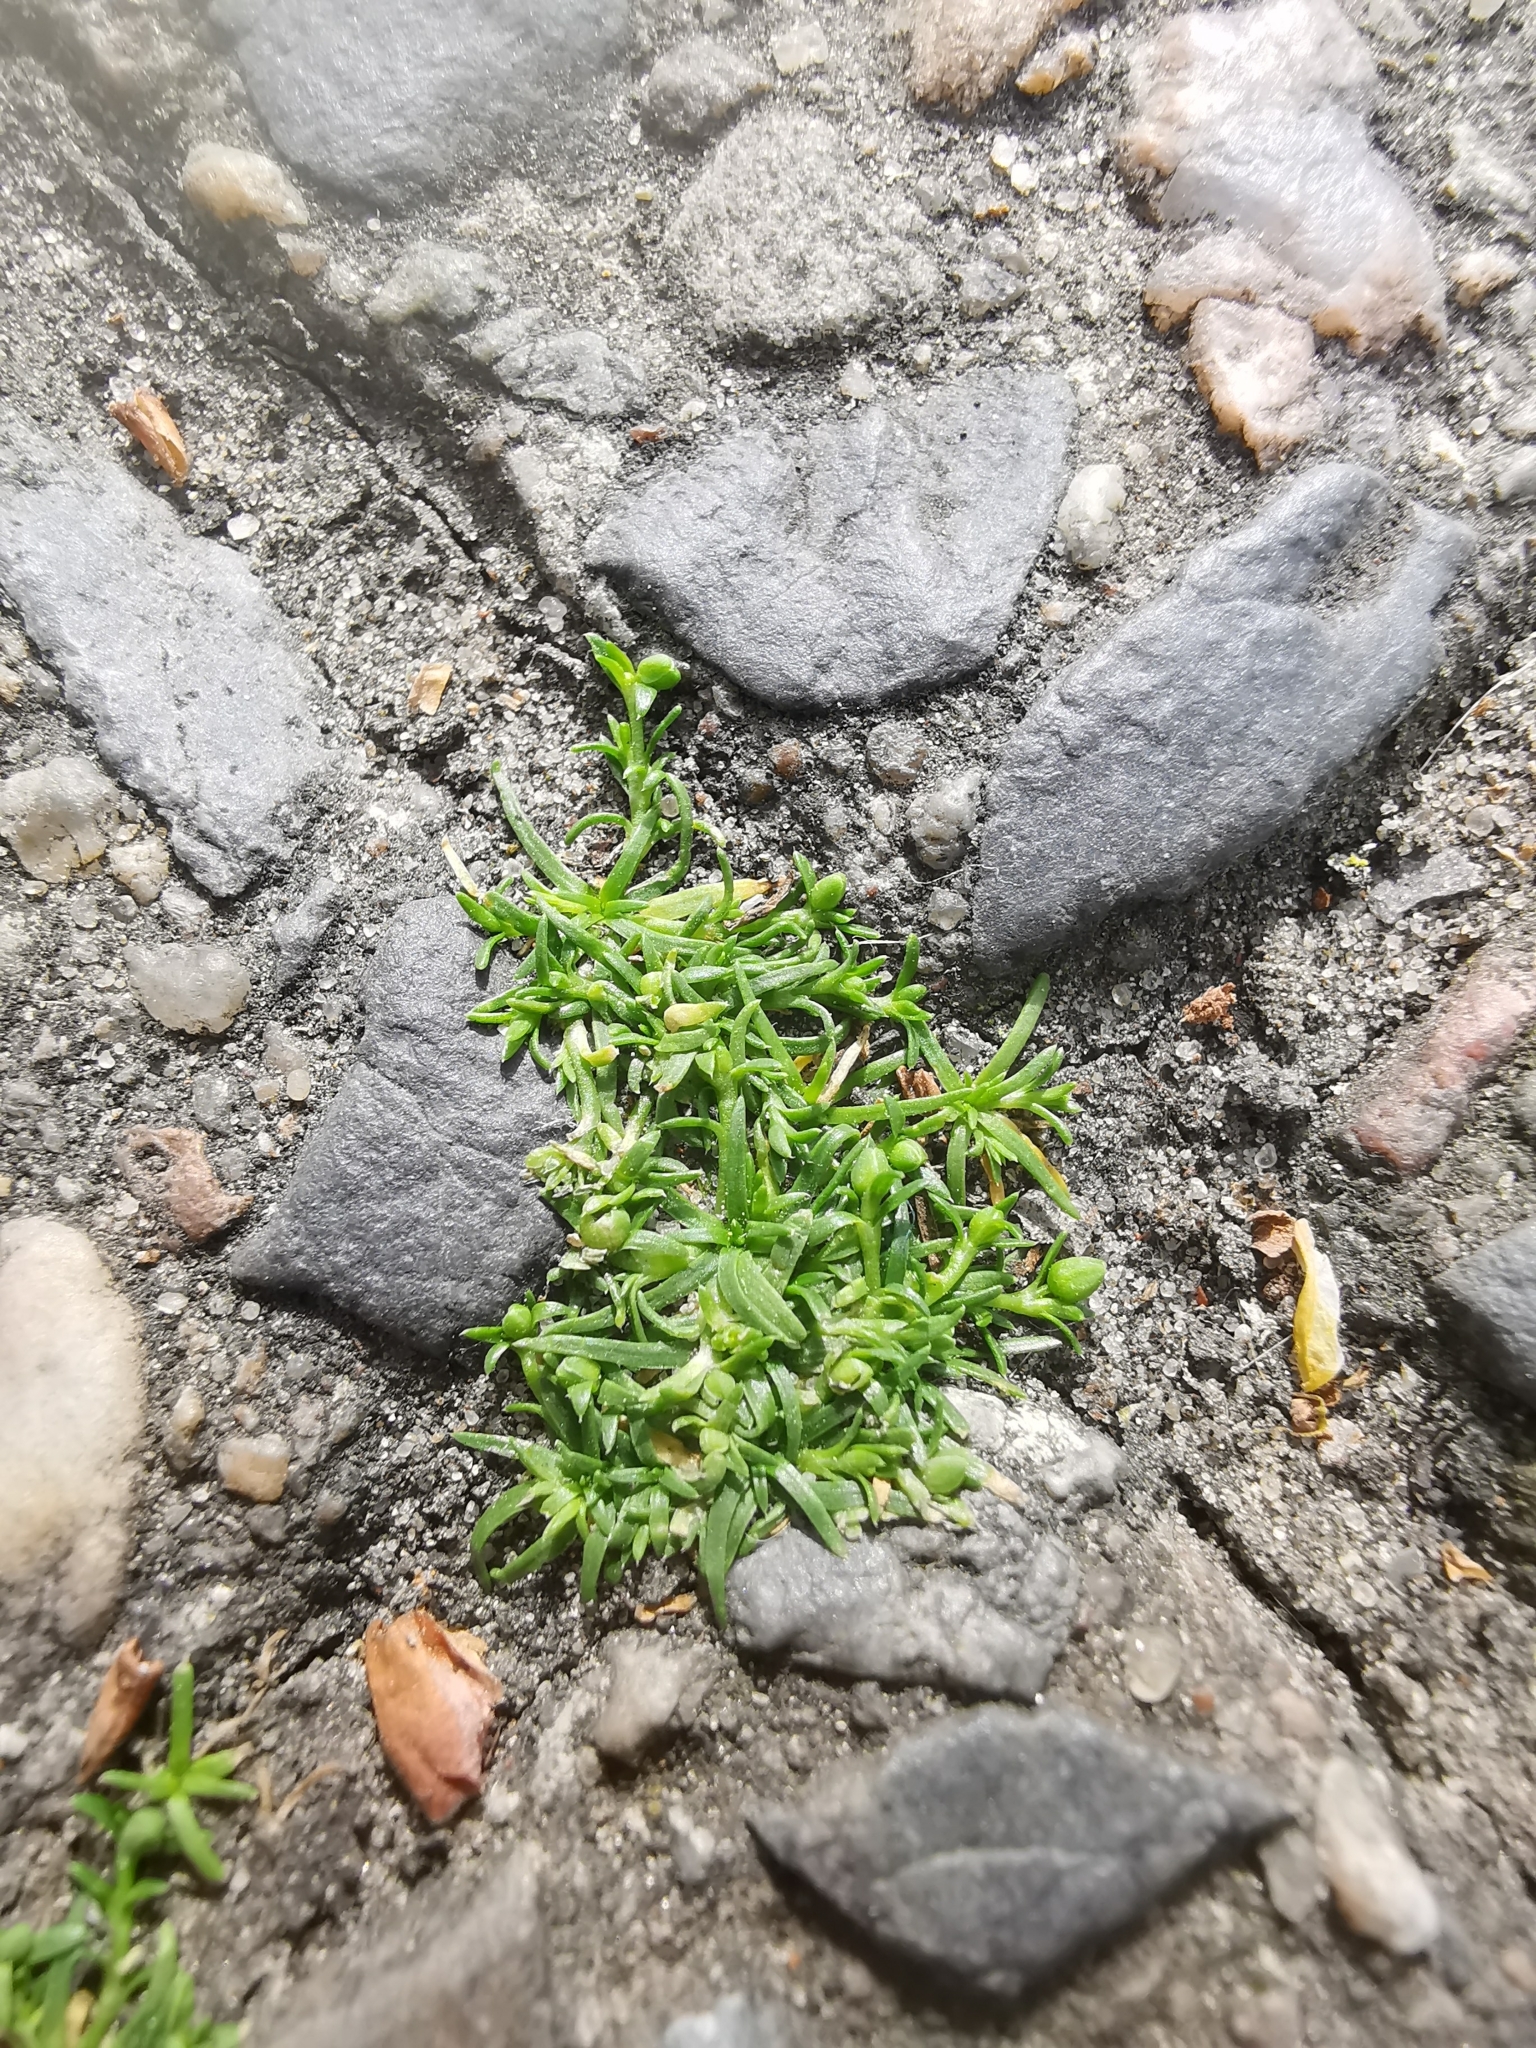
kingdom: Plantae
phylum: Tracheophyta
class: Magnoliopsida
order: Caryophyllales
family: Caryophyllaceae
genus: Sagina
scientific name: Sagina procumbens
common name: Procumbent pearlwort
